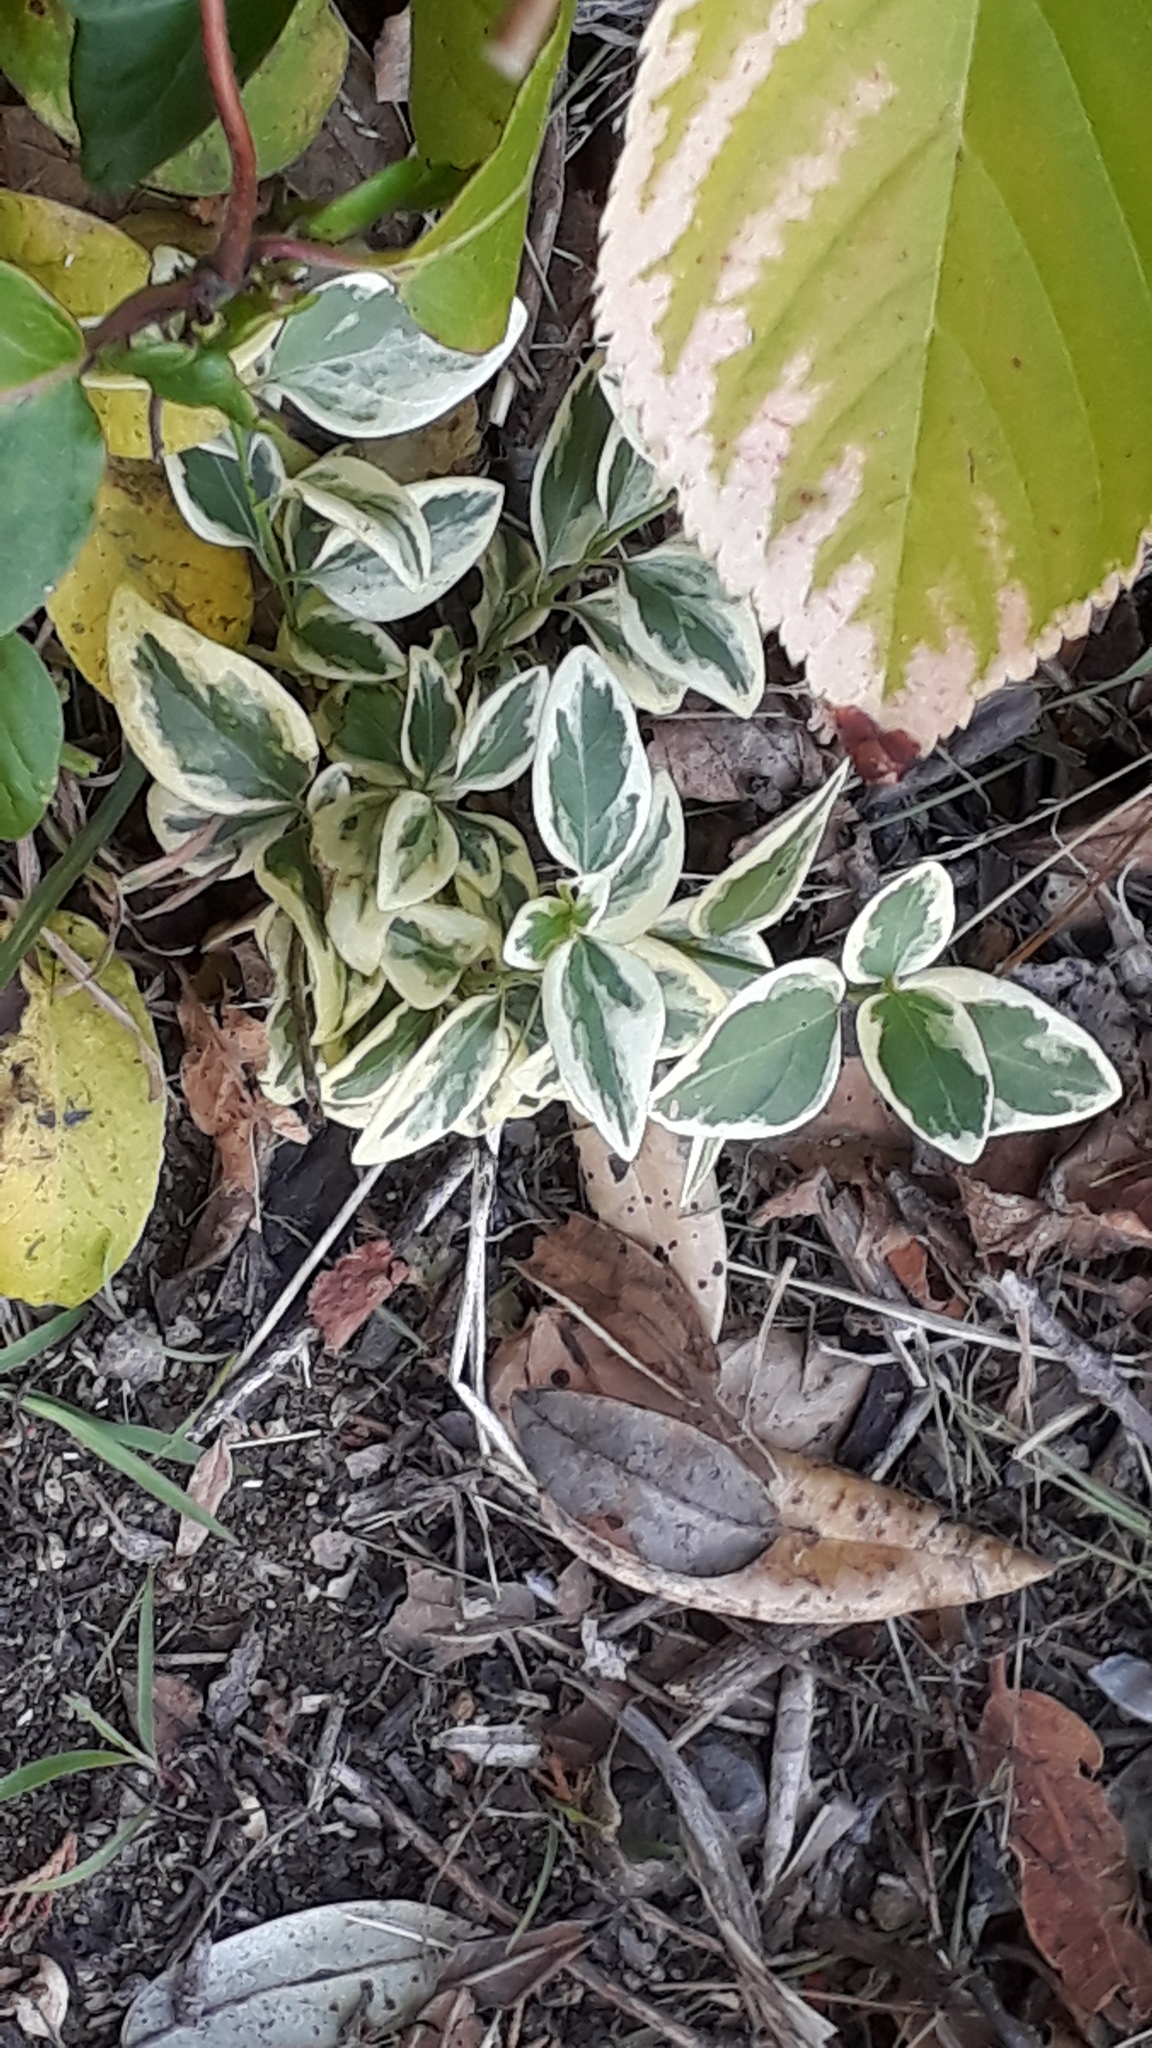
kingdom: Plantae
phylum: Tracheophyta
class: Magnoliopsida
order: Gentianales
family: Apocynaceae
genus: Vinca
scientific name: Vinca major
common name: Greater periwinkle
